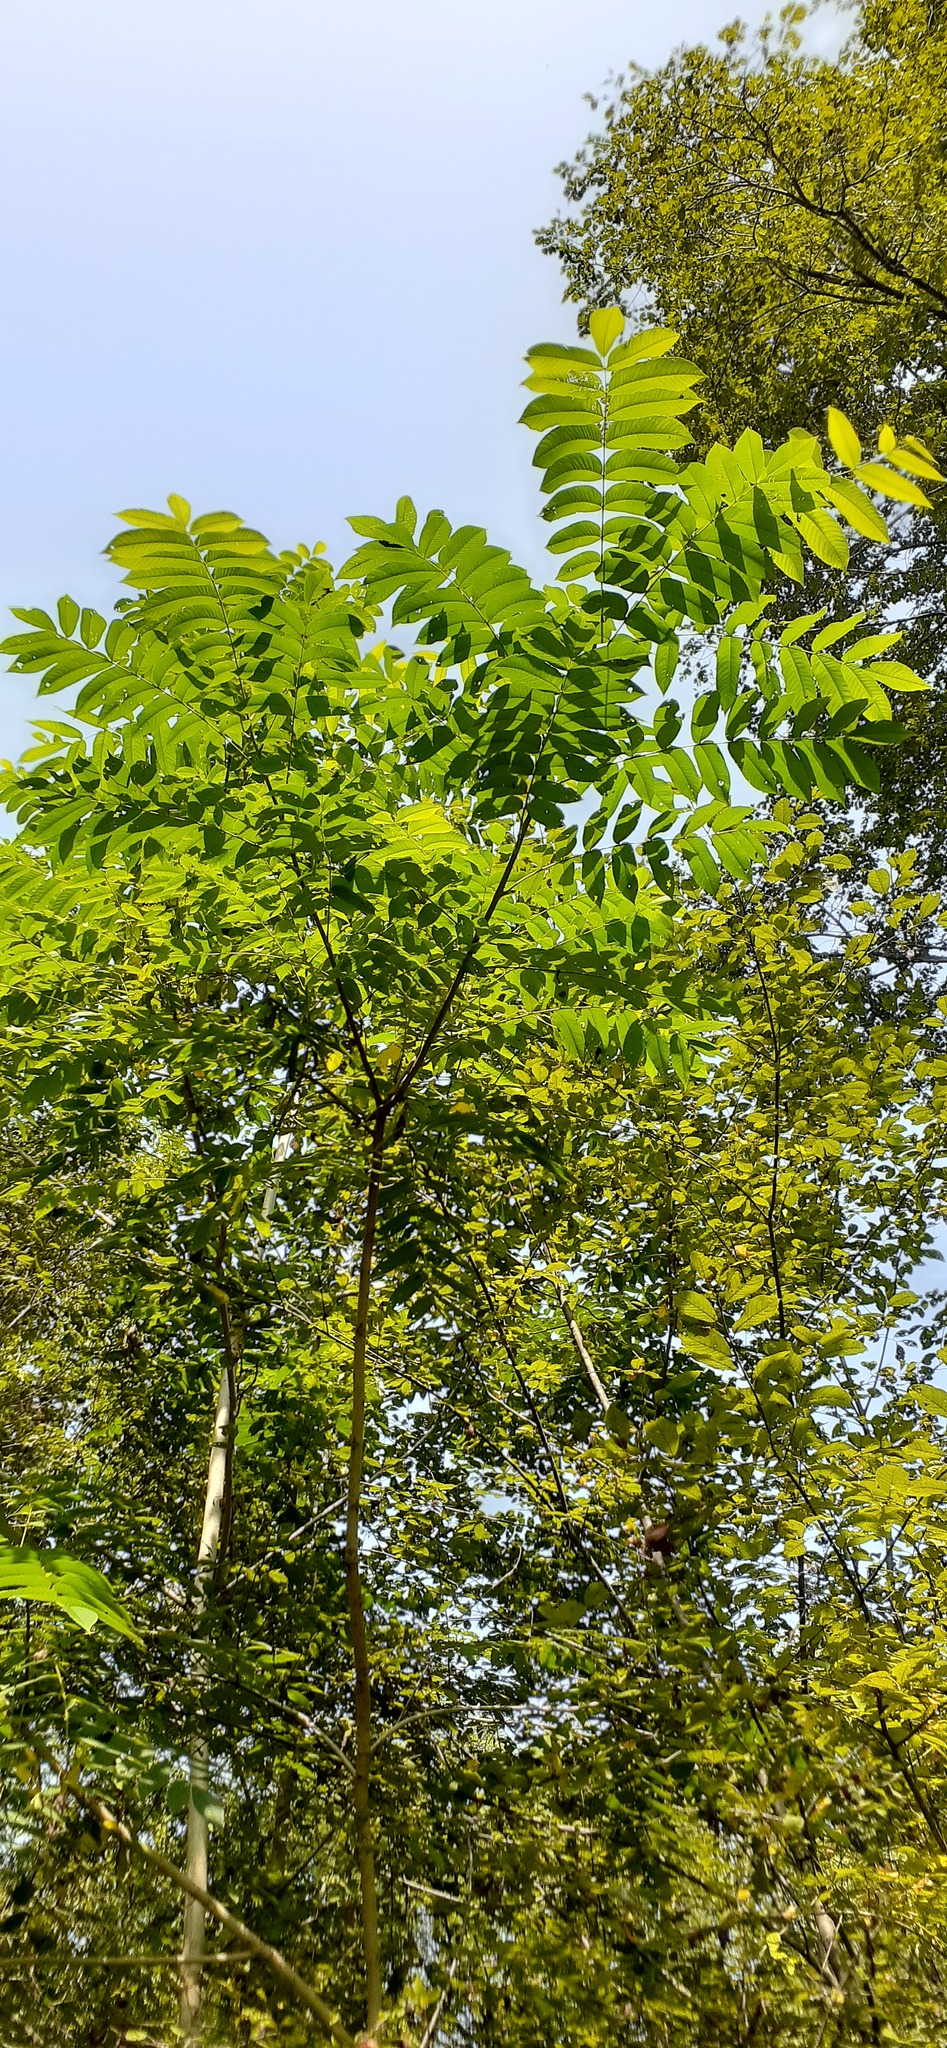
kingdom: Plantae
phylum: Tracheophyta
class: Magnoliopsida
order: Fagales
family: Juglandaceae
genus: Juglans
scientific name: Juglans mandshurica
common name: Manchurian walnut
